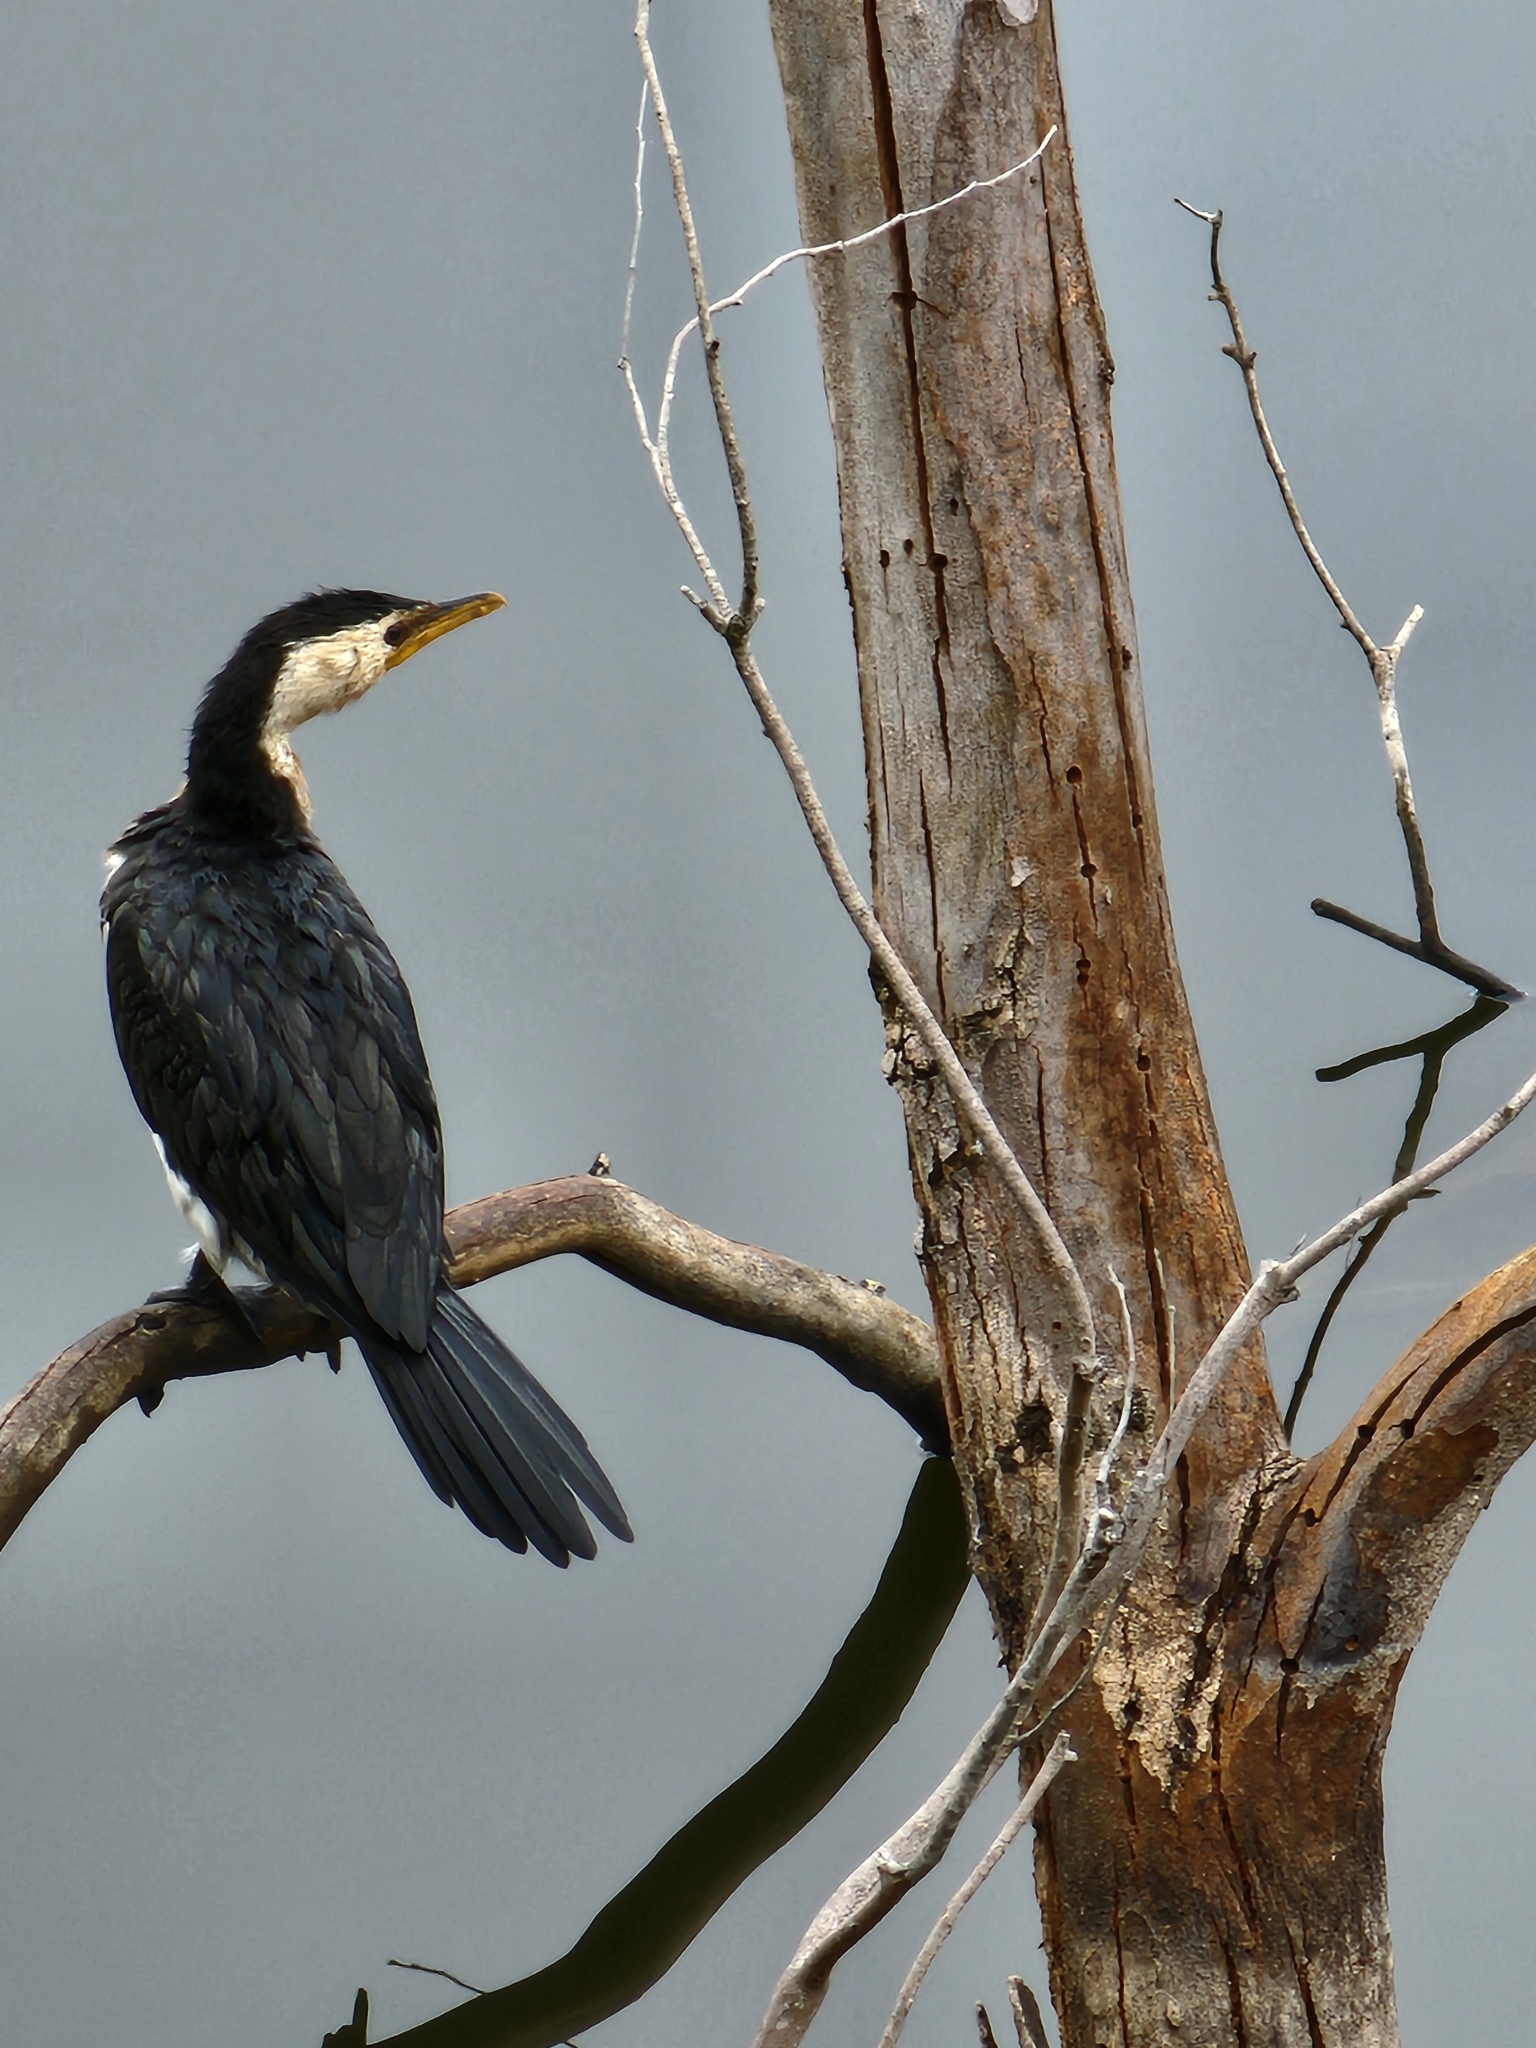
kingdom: Animalia
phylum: Chordata
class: Aves
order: Suliformes
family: Phalacrocoracidae
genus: Microcarbo
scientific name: Microcarbo melanoleucos
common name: Little pied cormorant
